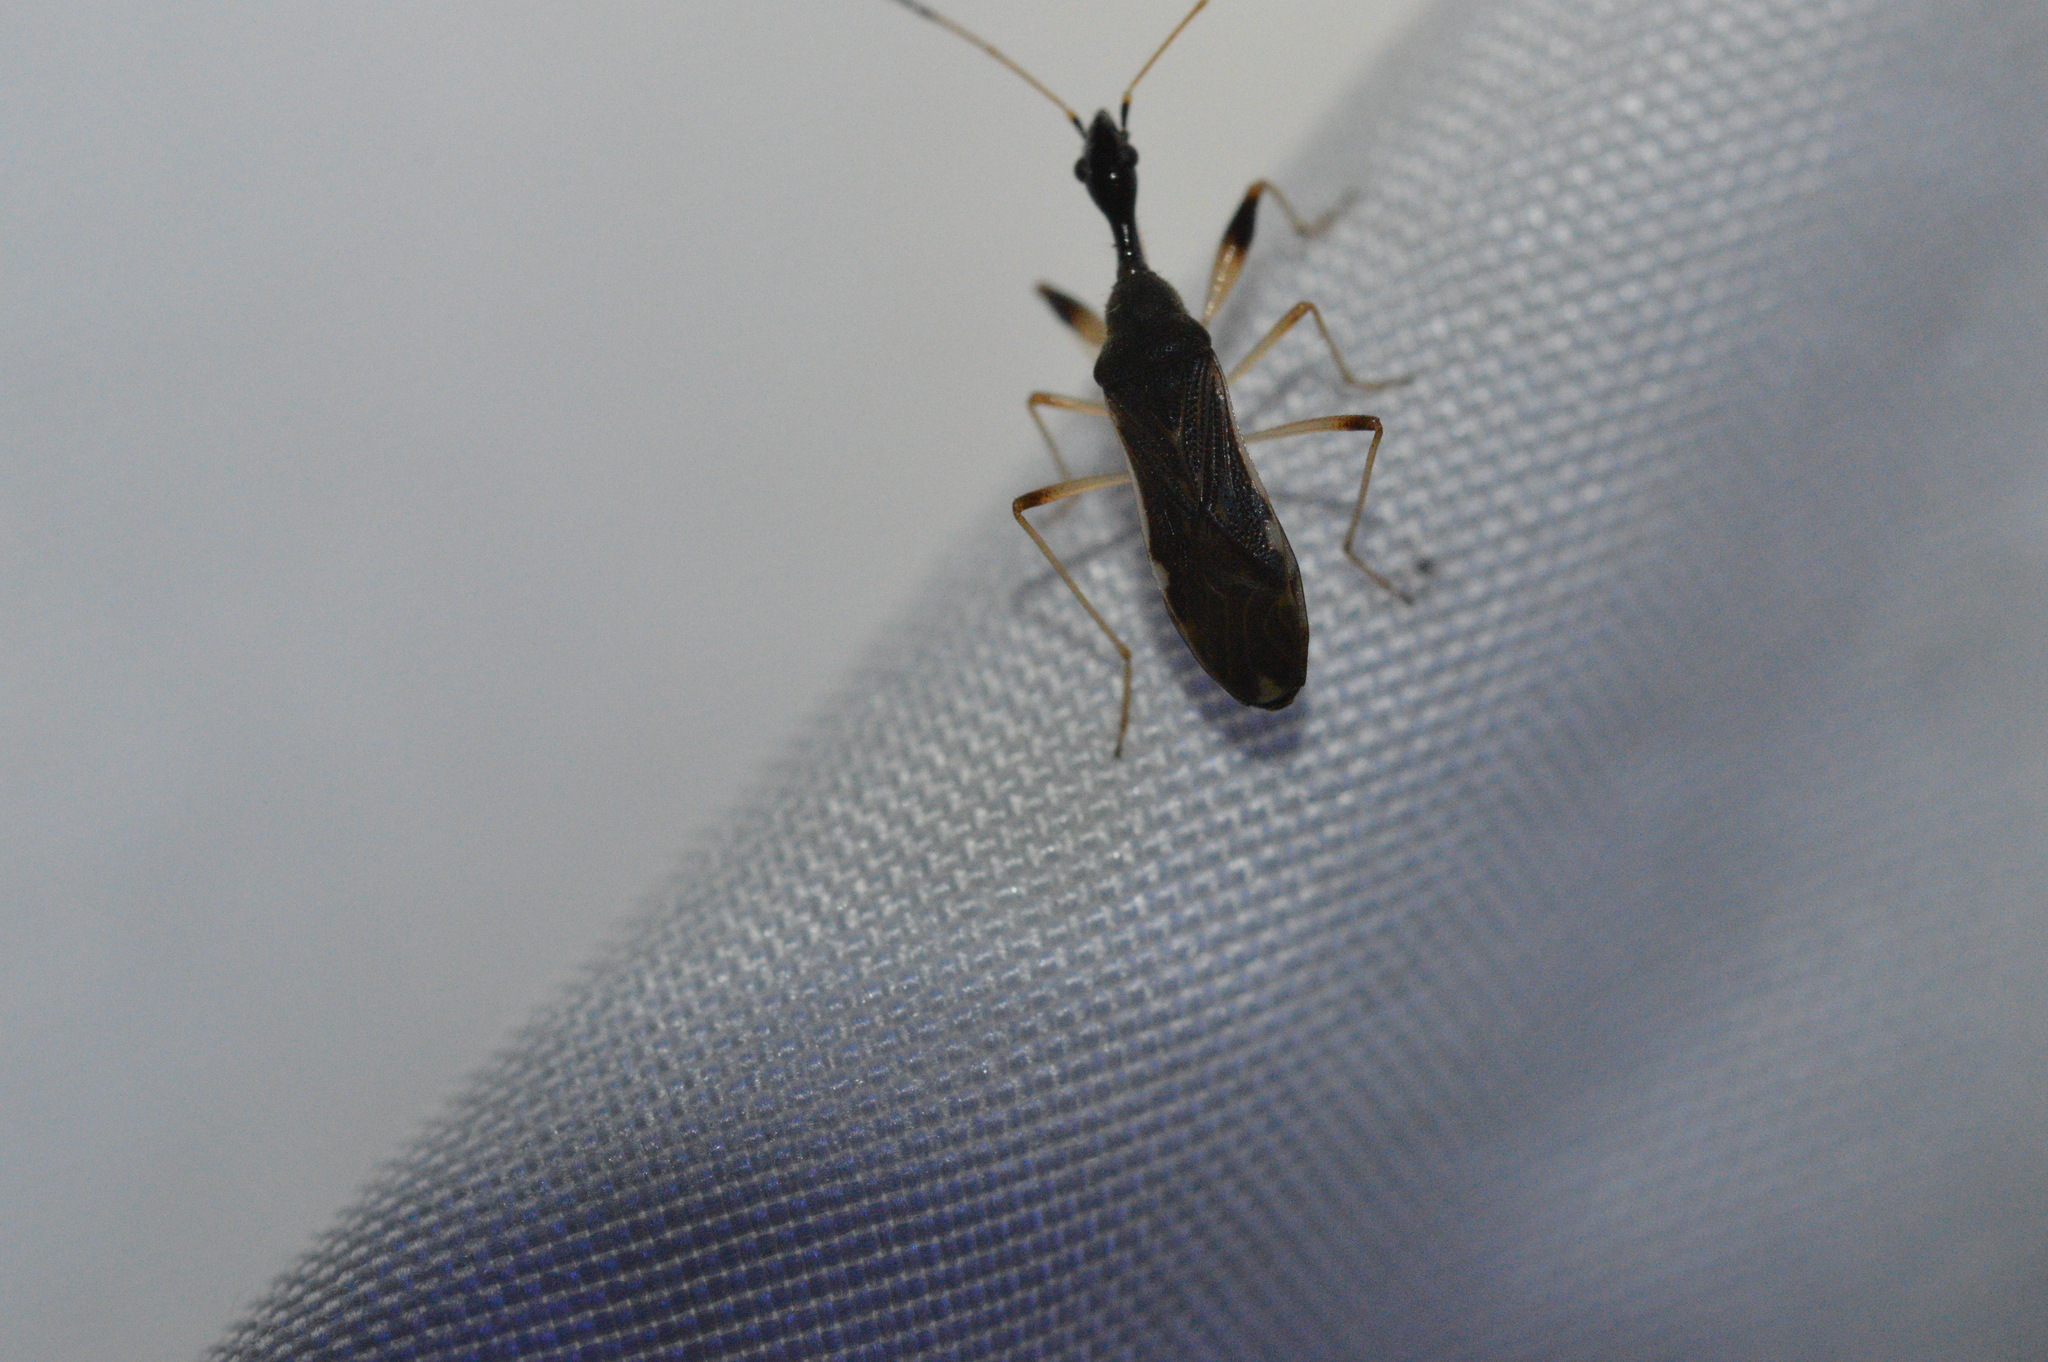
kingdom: Animalia
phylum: Arthropoda
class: Insecta
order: Hemiptera
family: Rhyparochromidae
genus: Myodocha
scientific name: Myodocha serripes
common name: Long-necked seed bug
